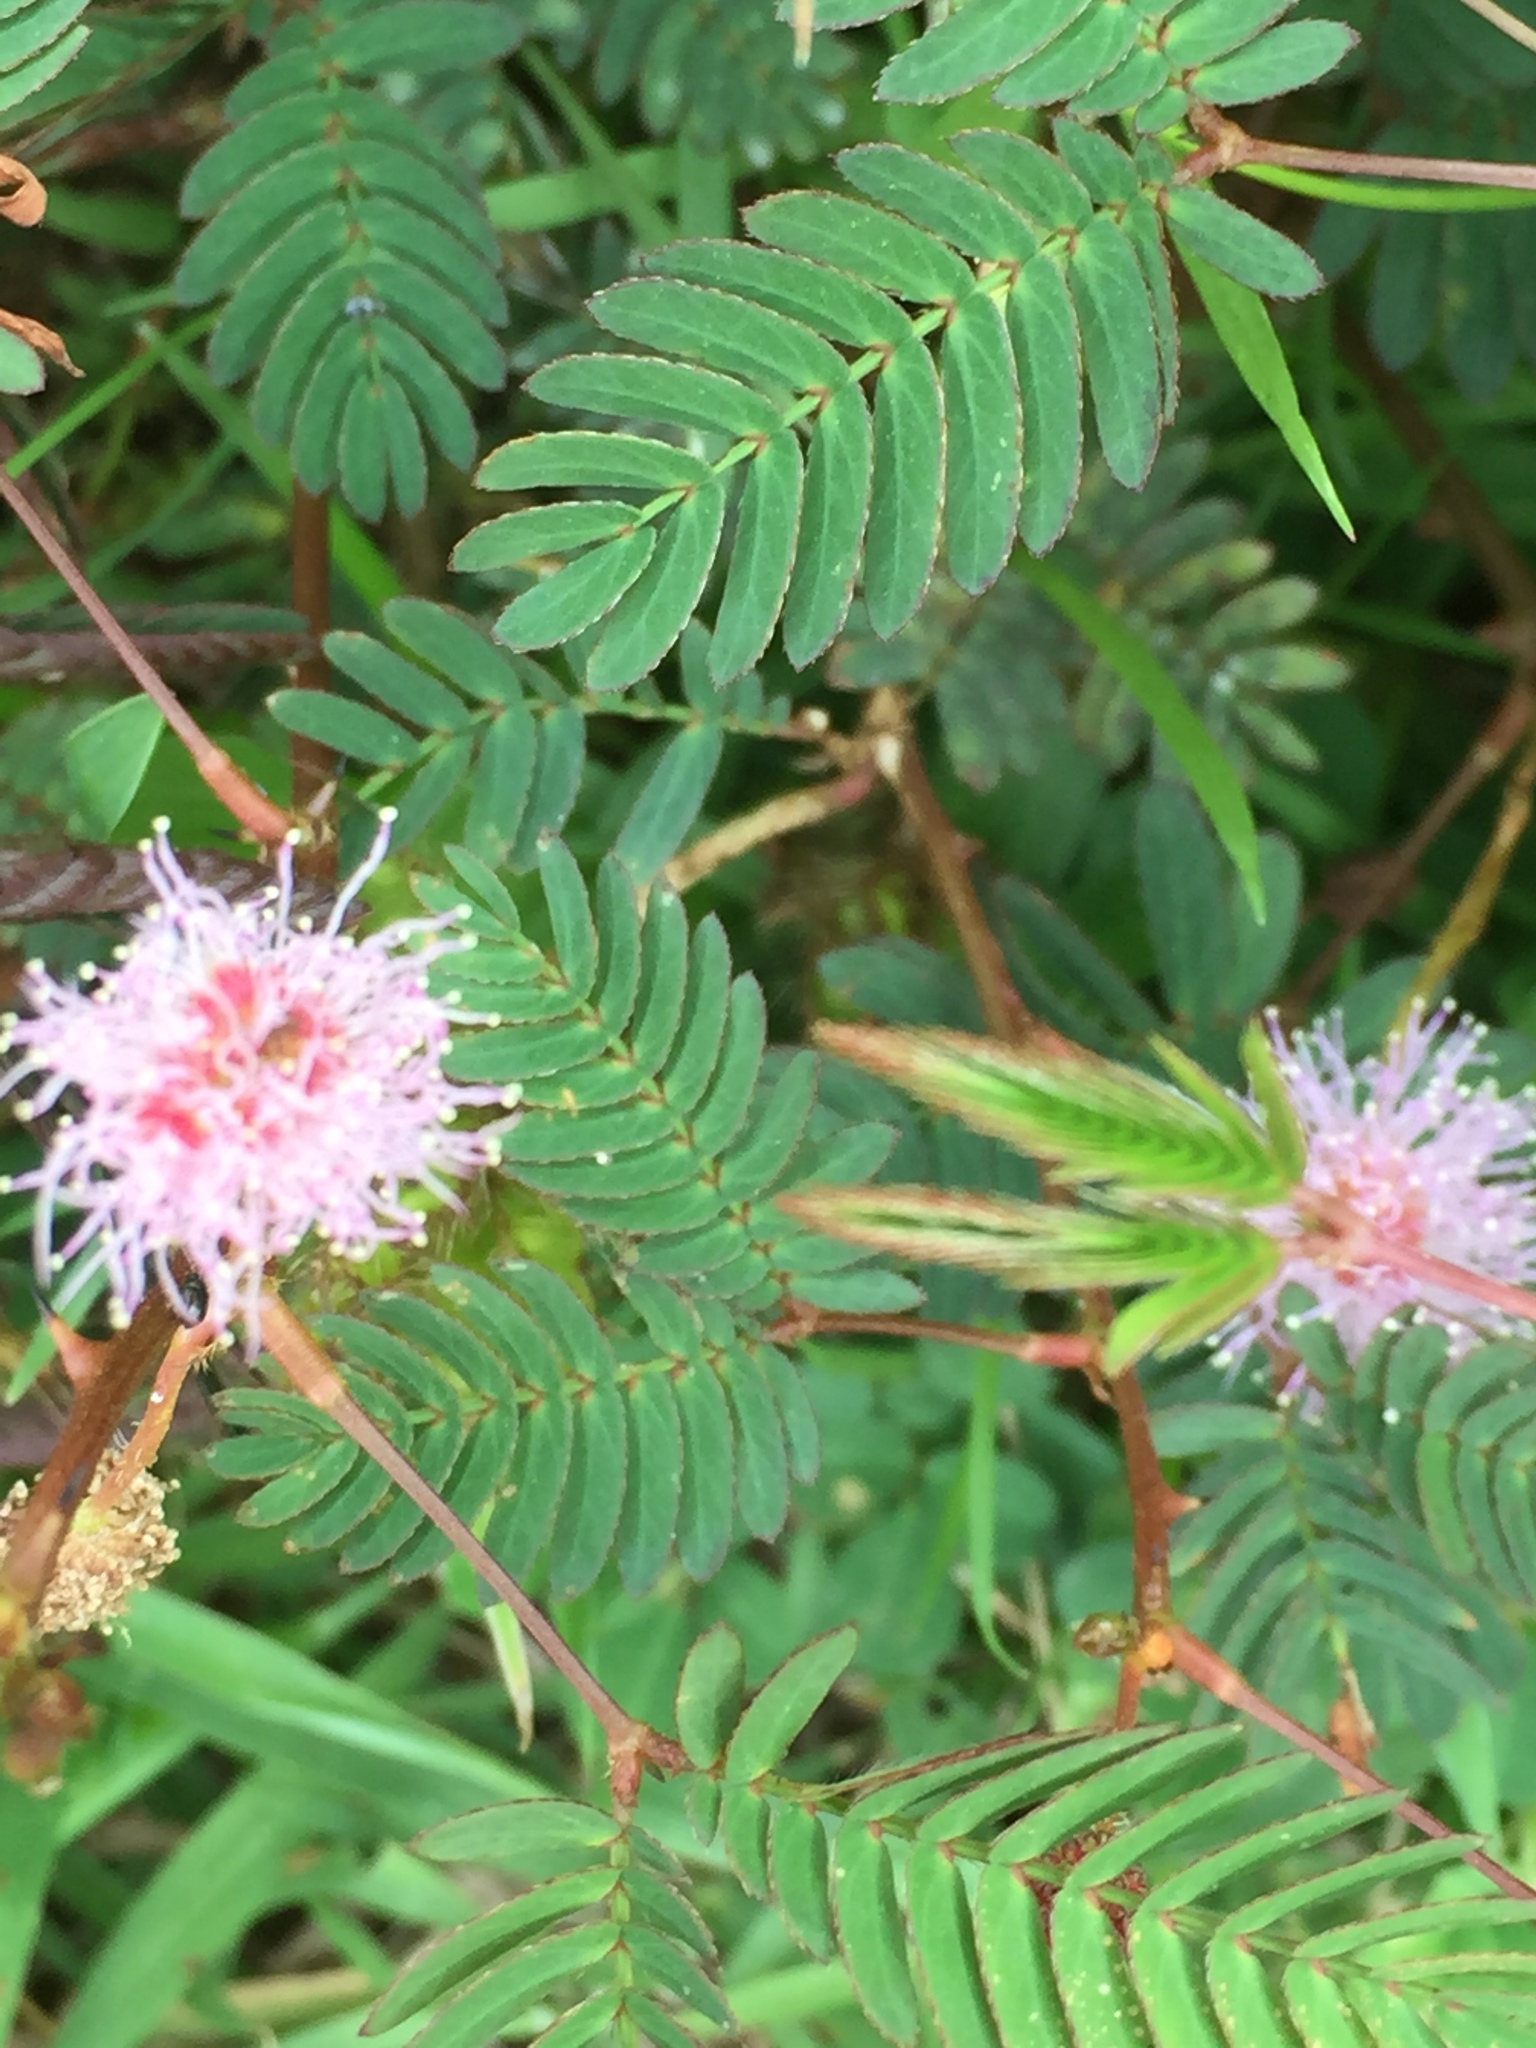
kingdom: Plantae
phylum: Tracheophyta
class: Magnoliopsida
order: Fabales
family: Fabaceae
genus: Mimosa
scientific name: Mimosa pudica
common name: Sensitive plant
